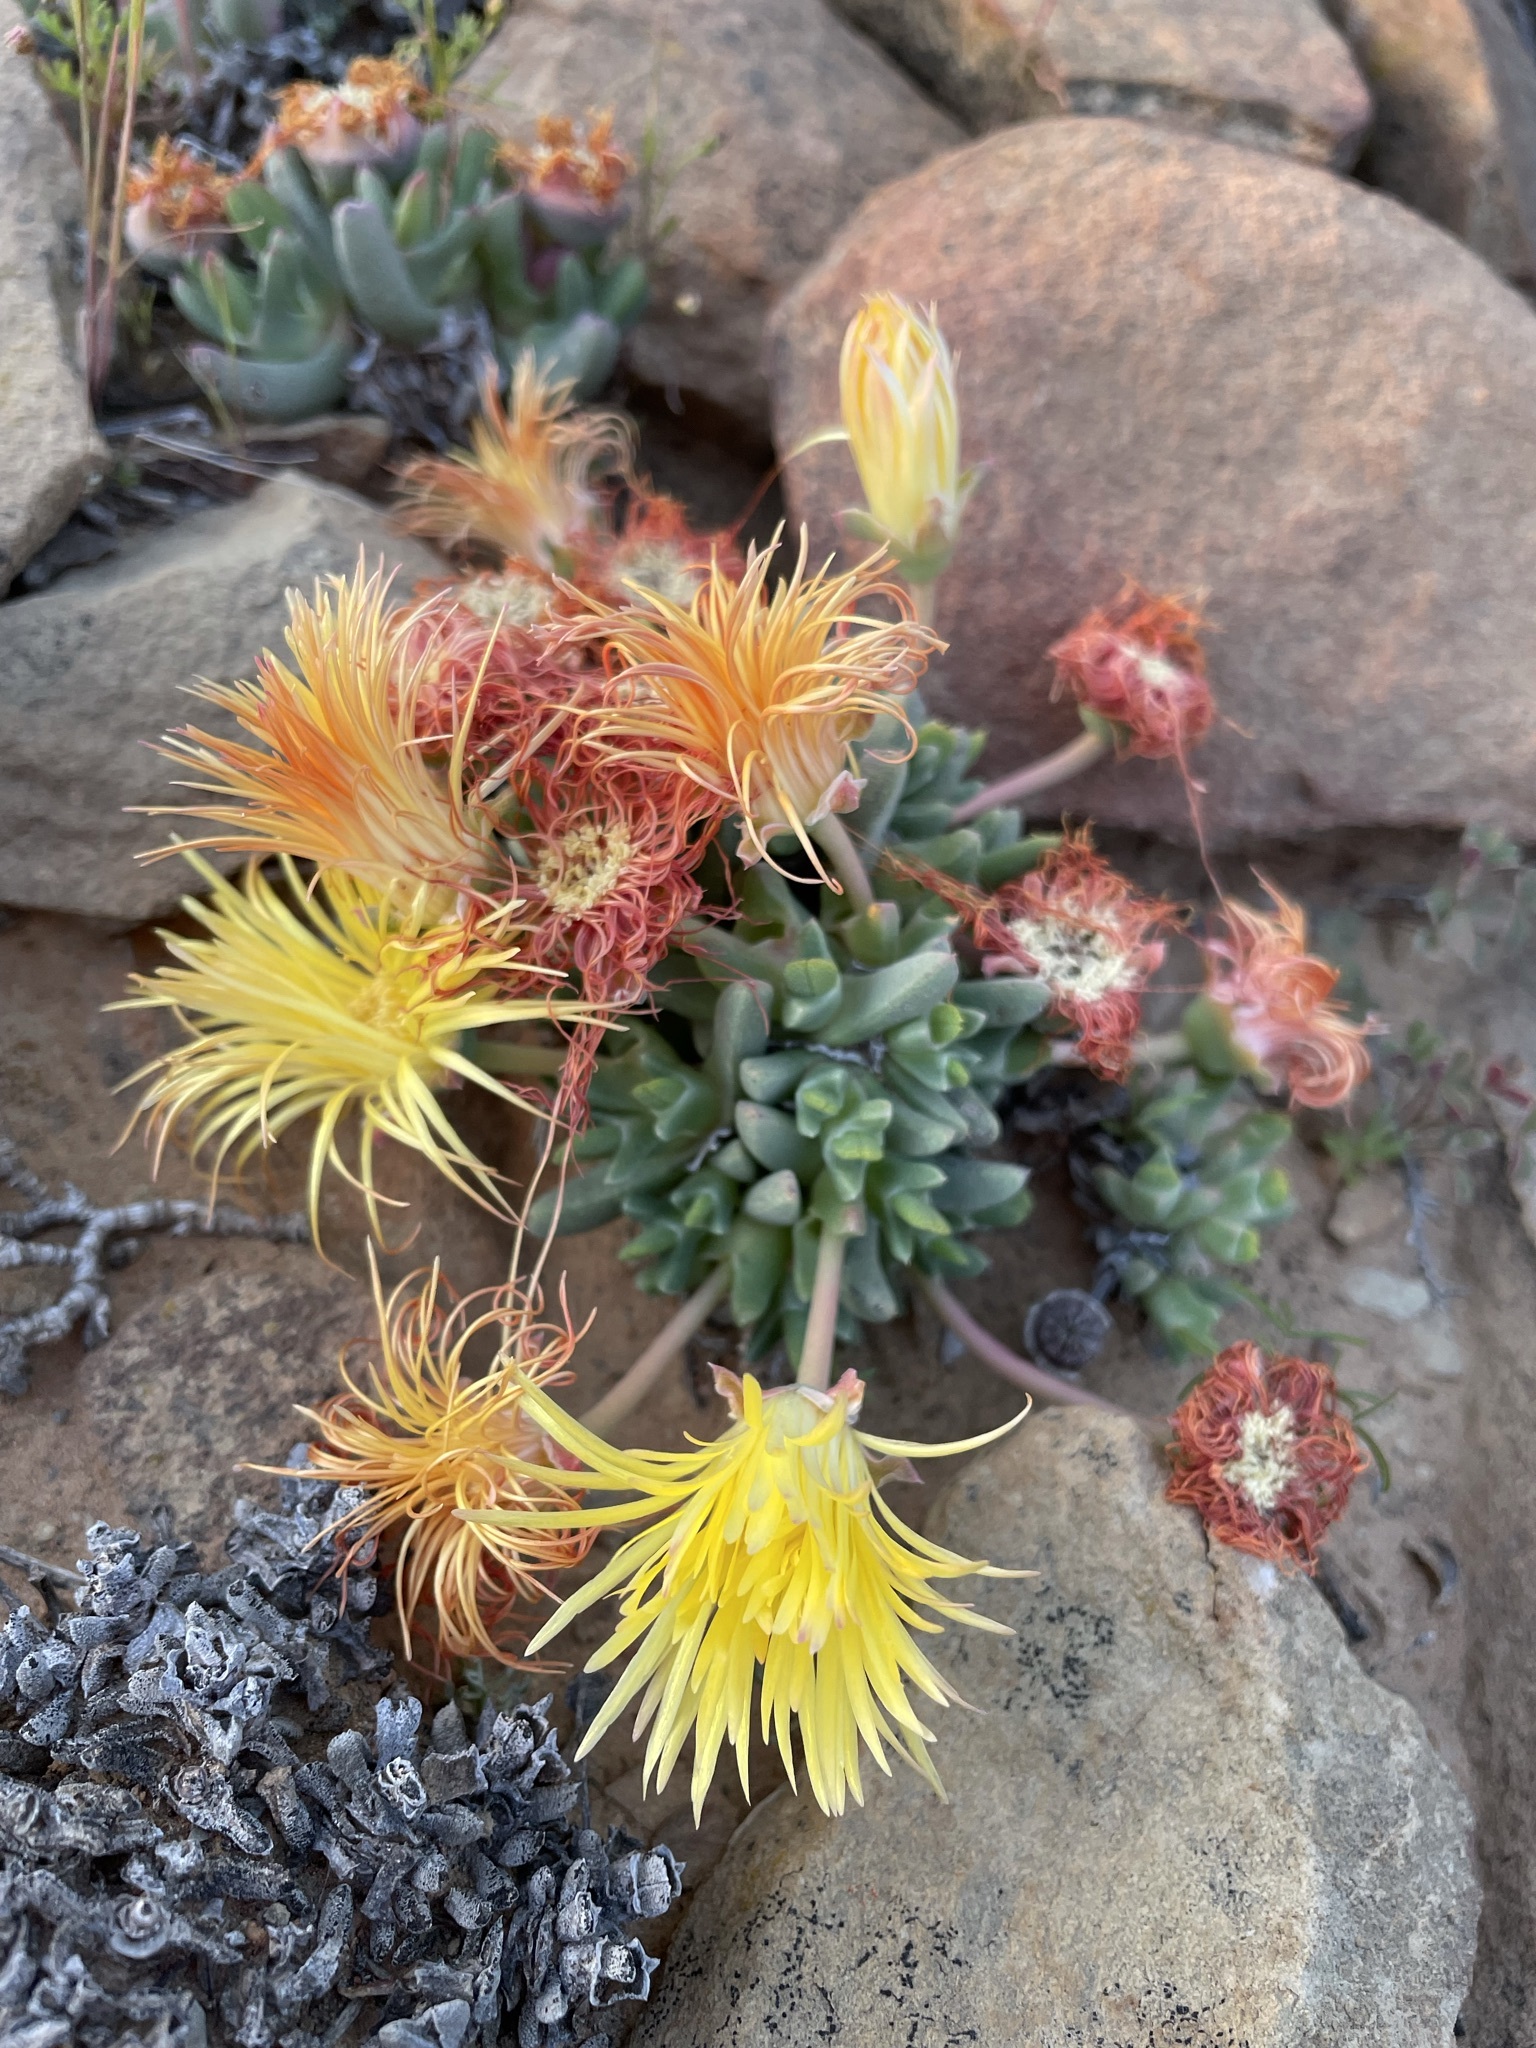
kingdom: Plantae
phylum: Tracheophyta
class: Magnoliopsida
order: Caryophyllales
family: Aizoaceae
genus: Cheiridopsis
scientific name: Cheiridopsis namaquensis
